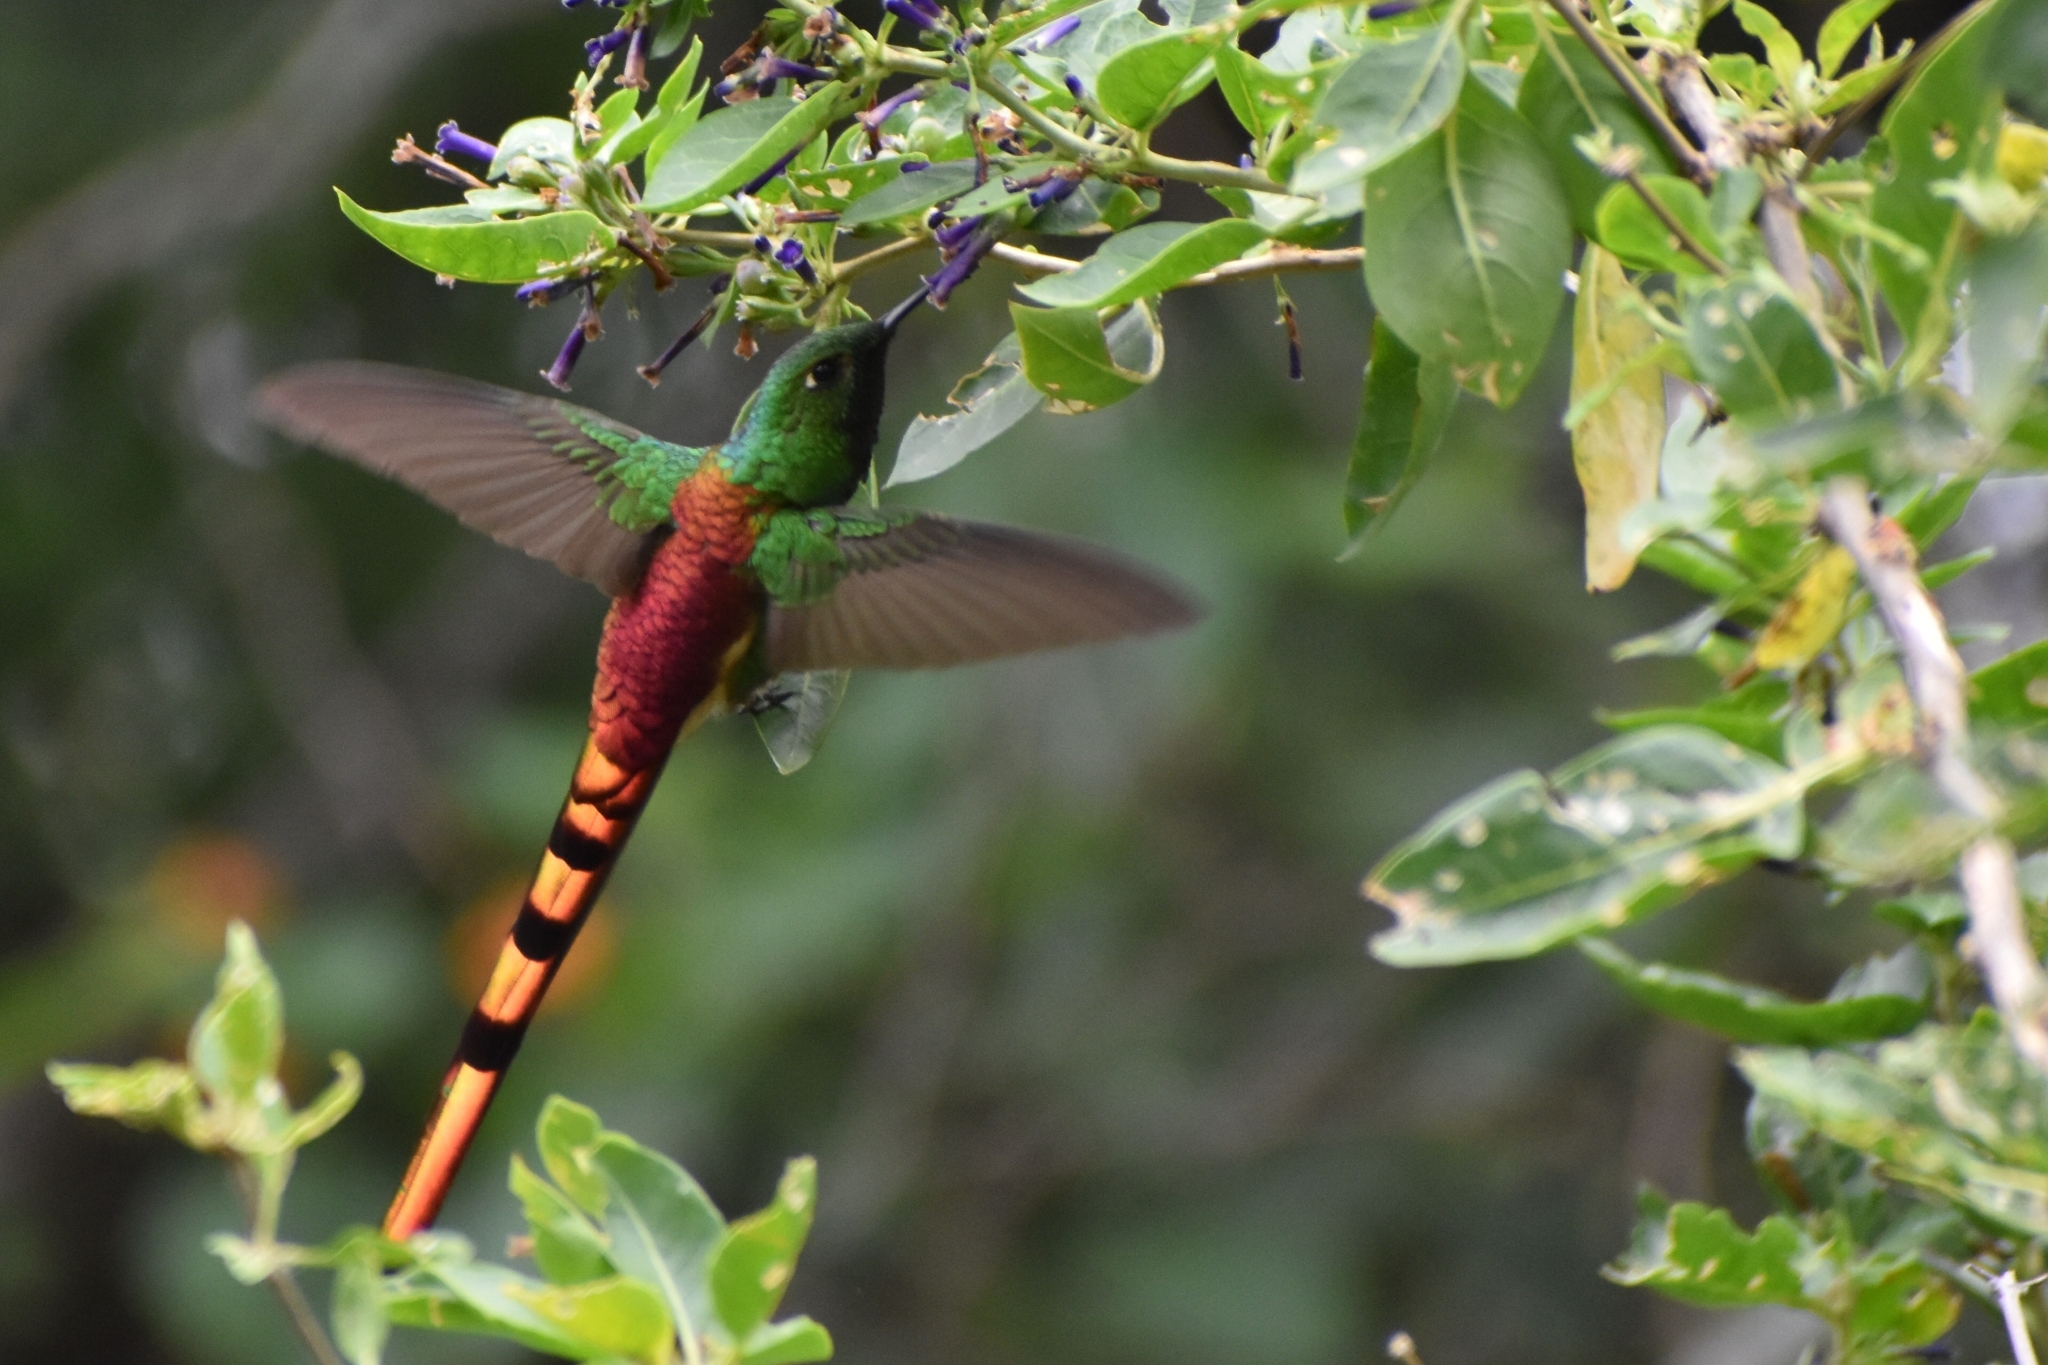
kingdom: Animalia
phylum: Chordata
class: Aves
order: Apodiformes
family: Trochilidae
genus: Sappho
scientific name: Sappho sparganurus
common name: Red-tailed comet
